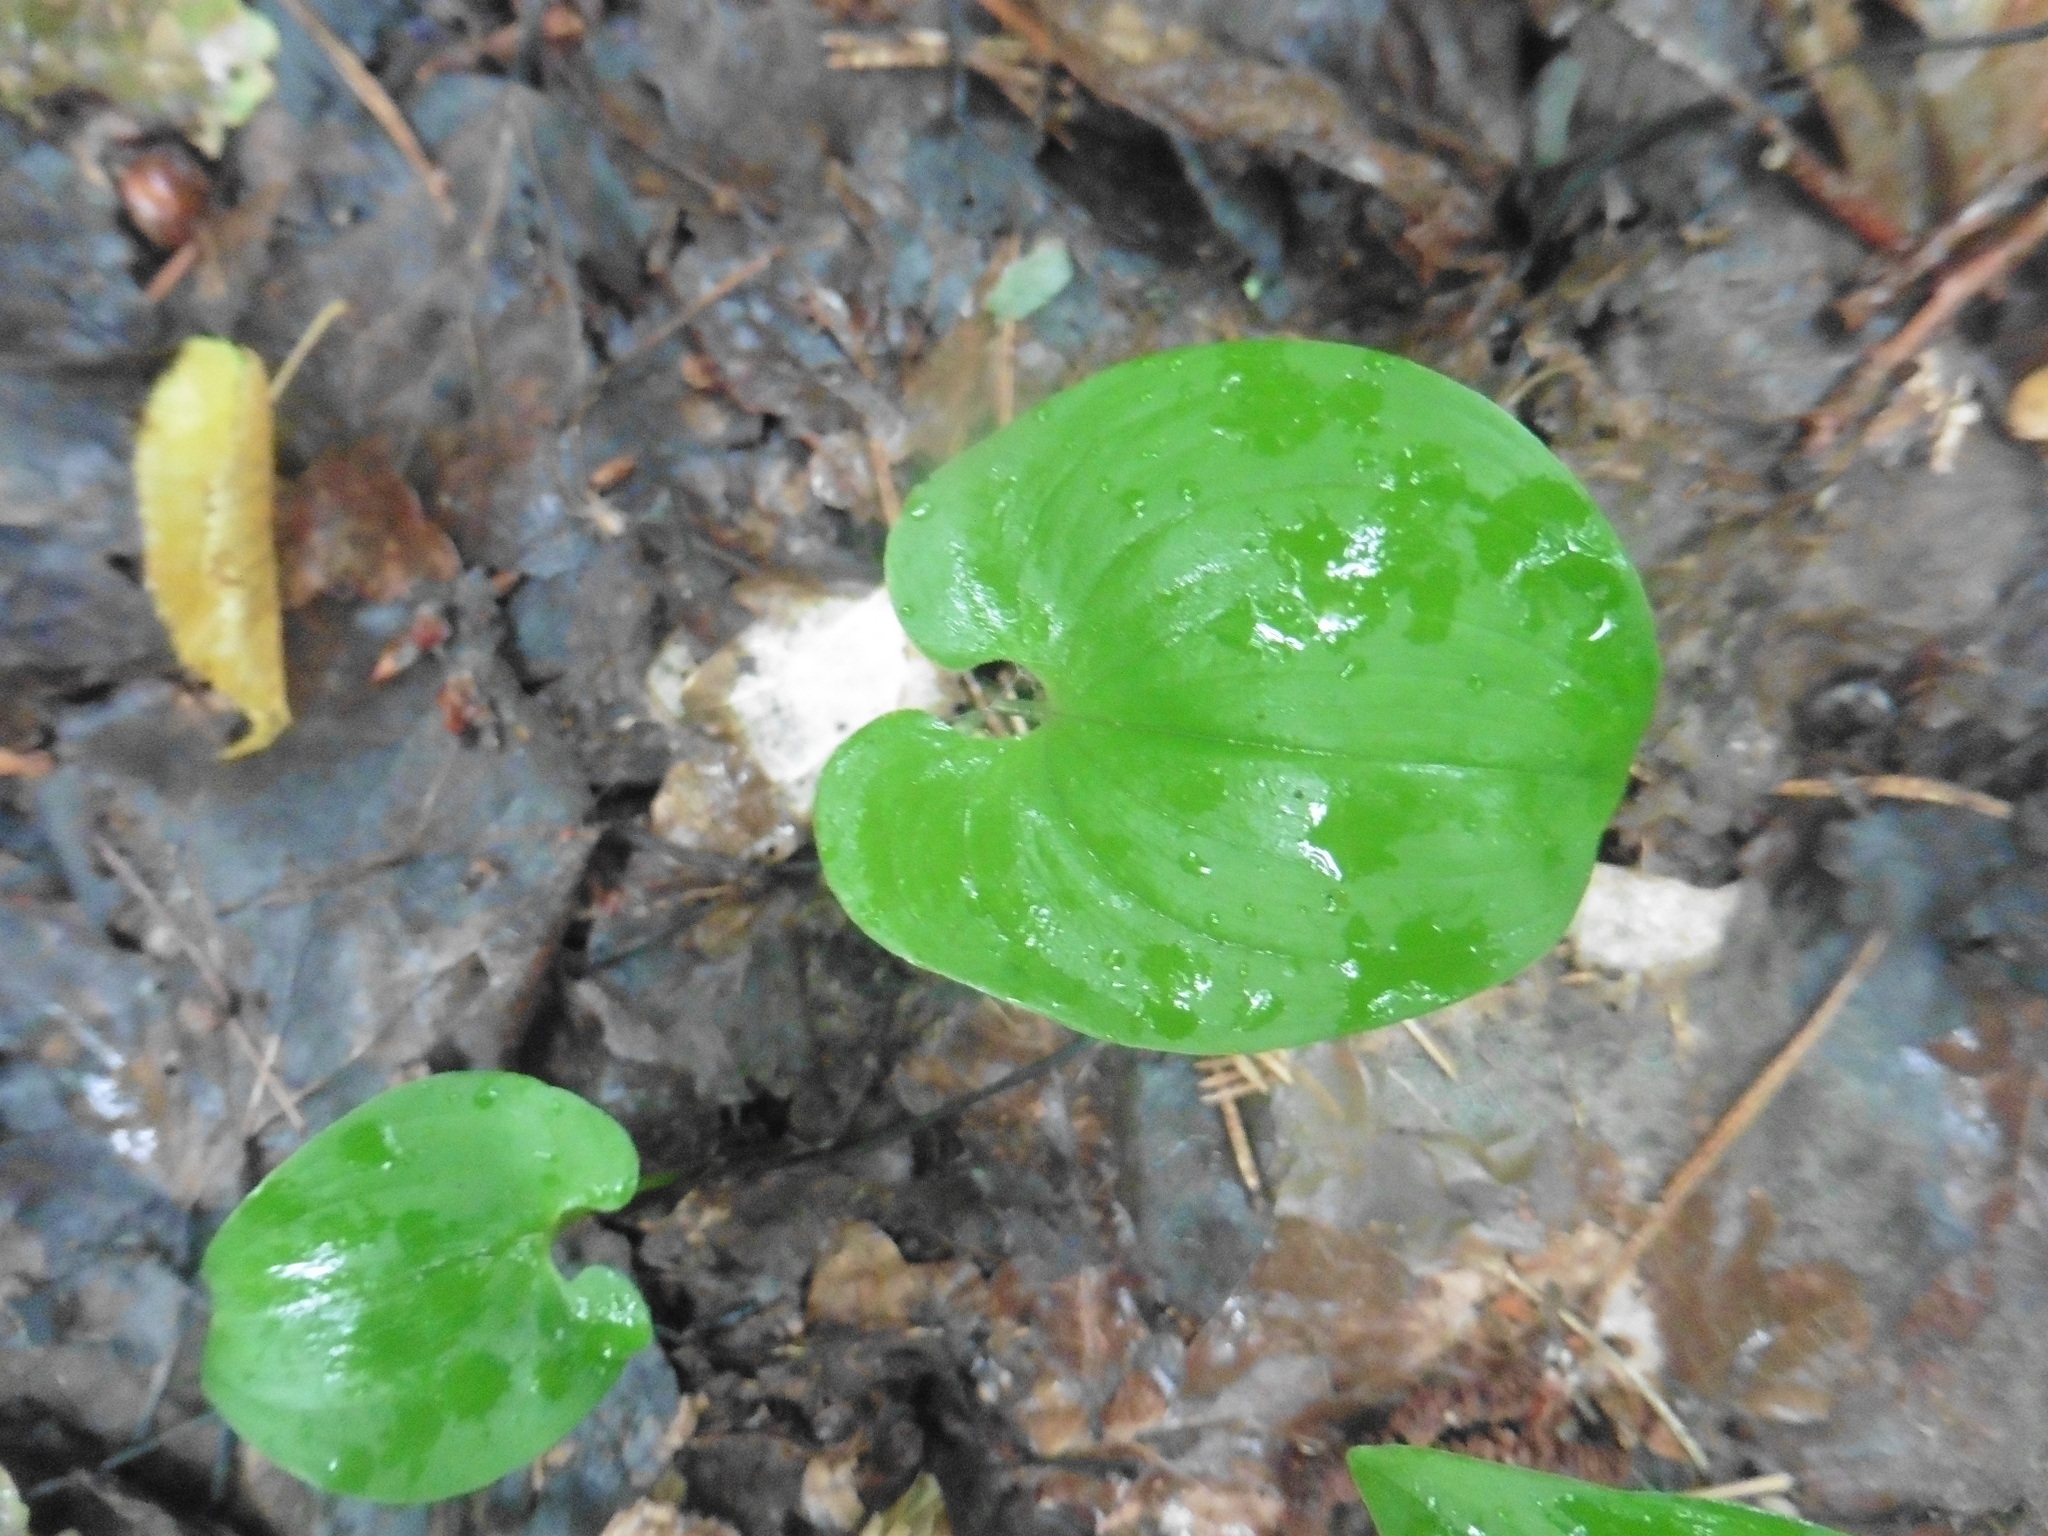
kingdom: Plantae
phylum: Tracheophyta
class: Liliopsida
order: Asparagales
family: Asparagaceae
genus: Maianthemum
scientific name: Maianthemum bifolium
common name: May lily
